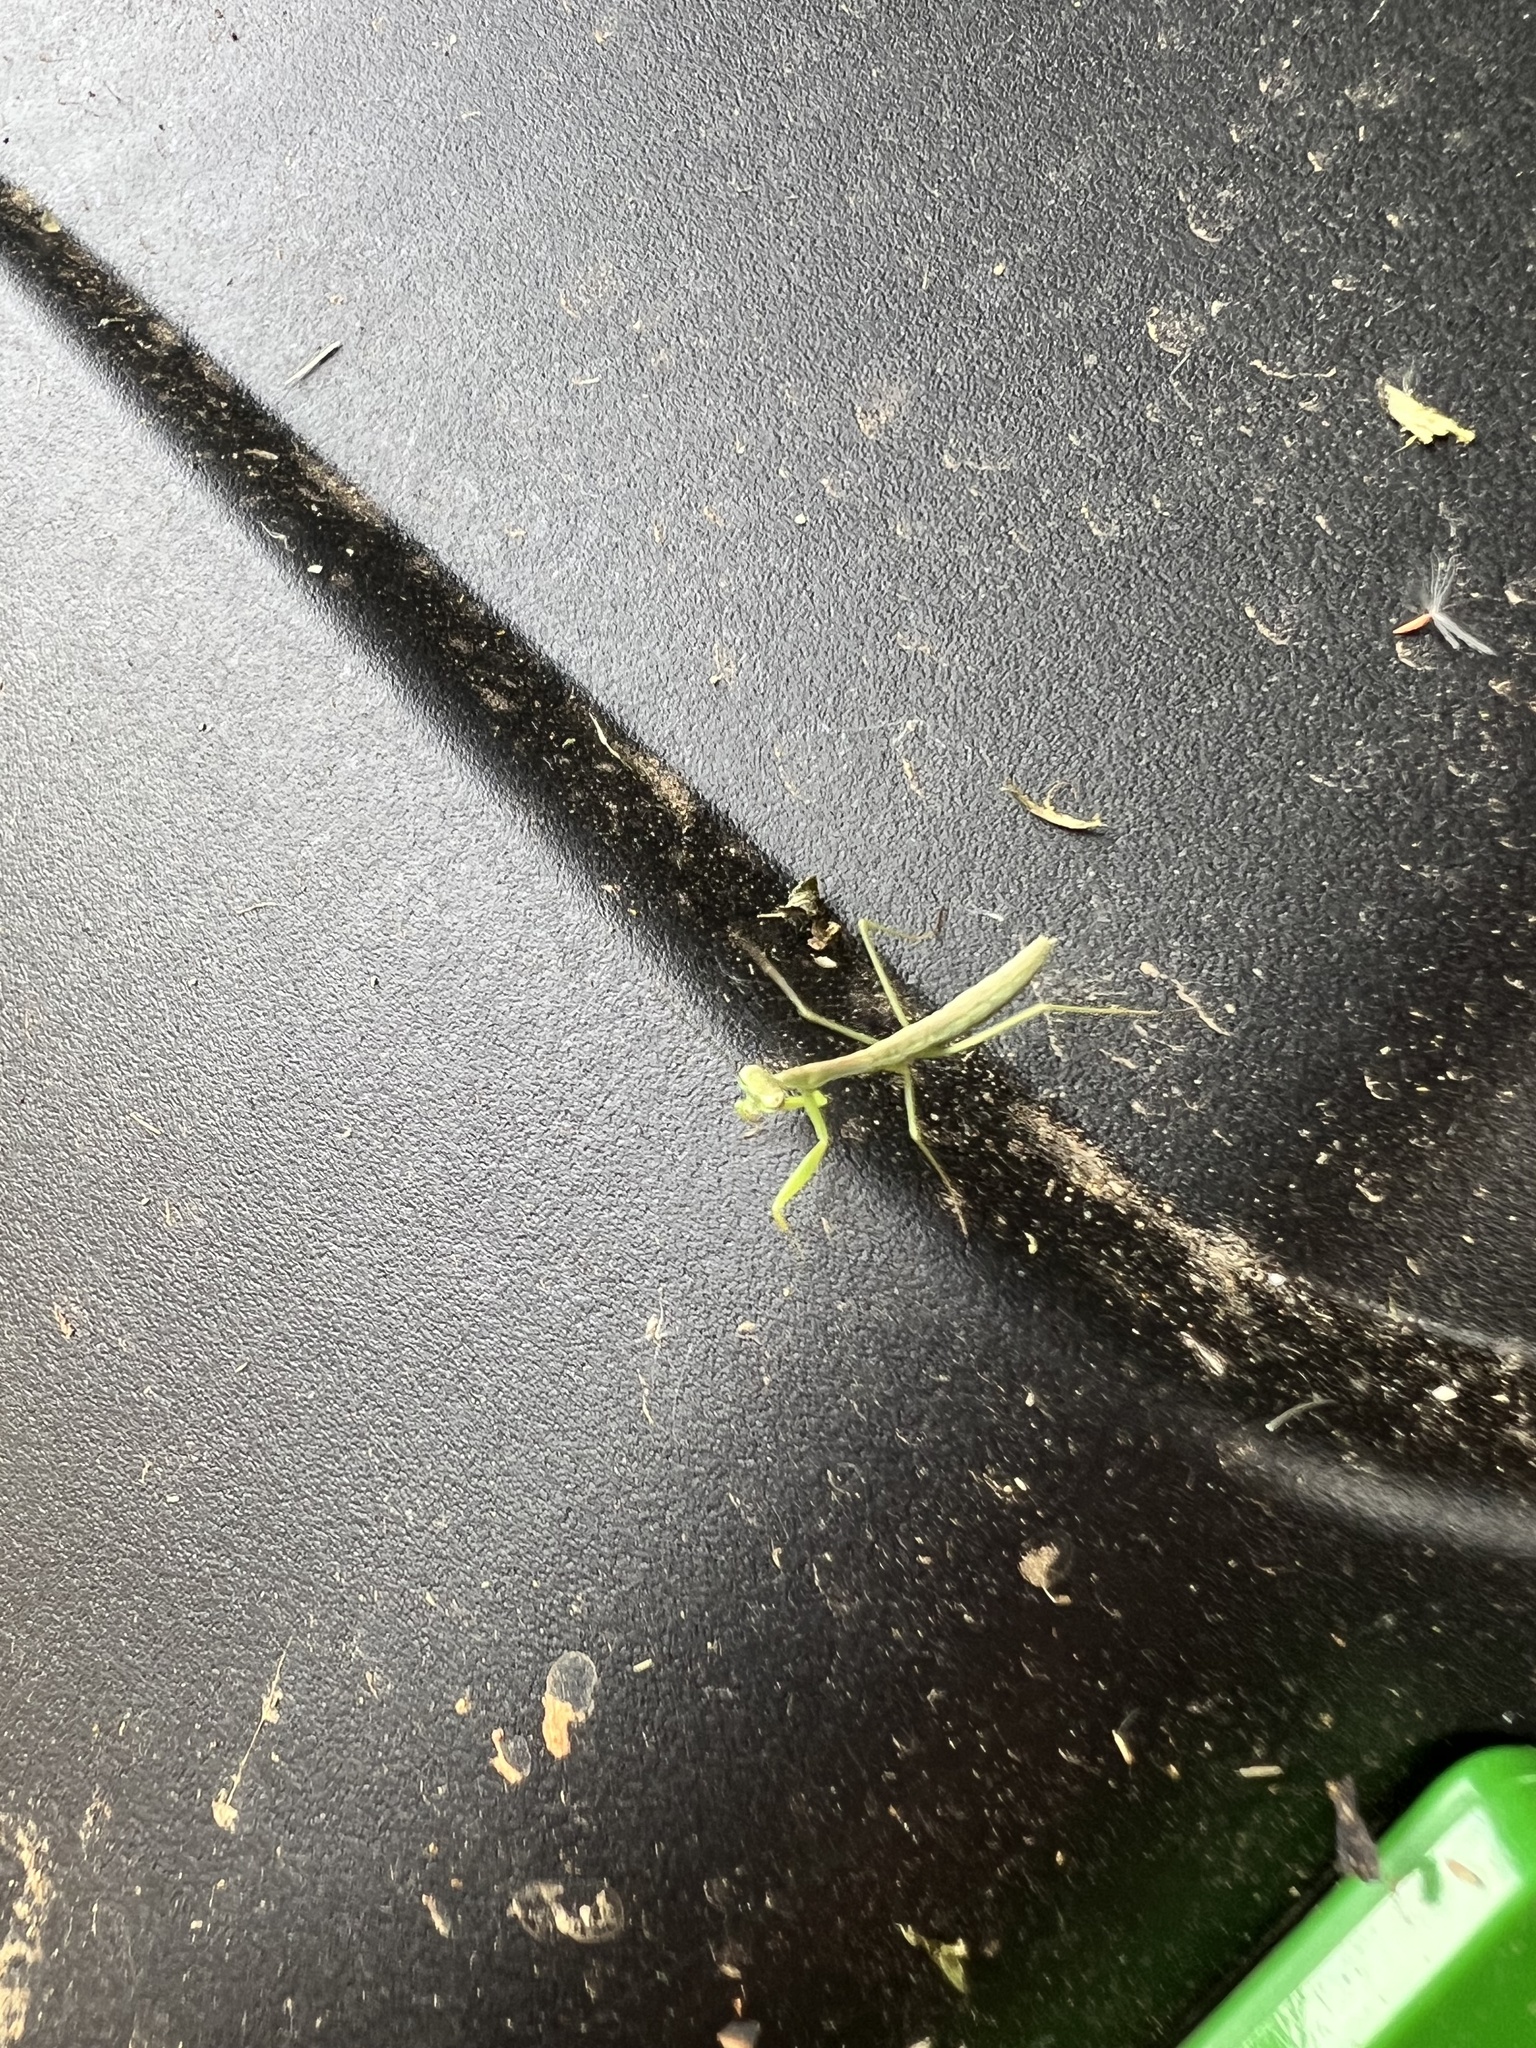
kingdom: Animalia
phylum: Arthropoda
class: Insecta
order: Mantodea
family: Mantidae
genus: Stagmomantis
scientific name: Stagmomantis carolina
